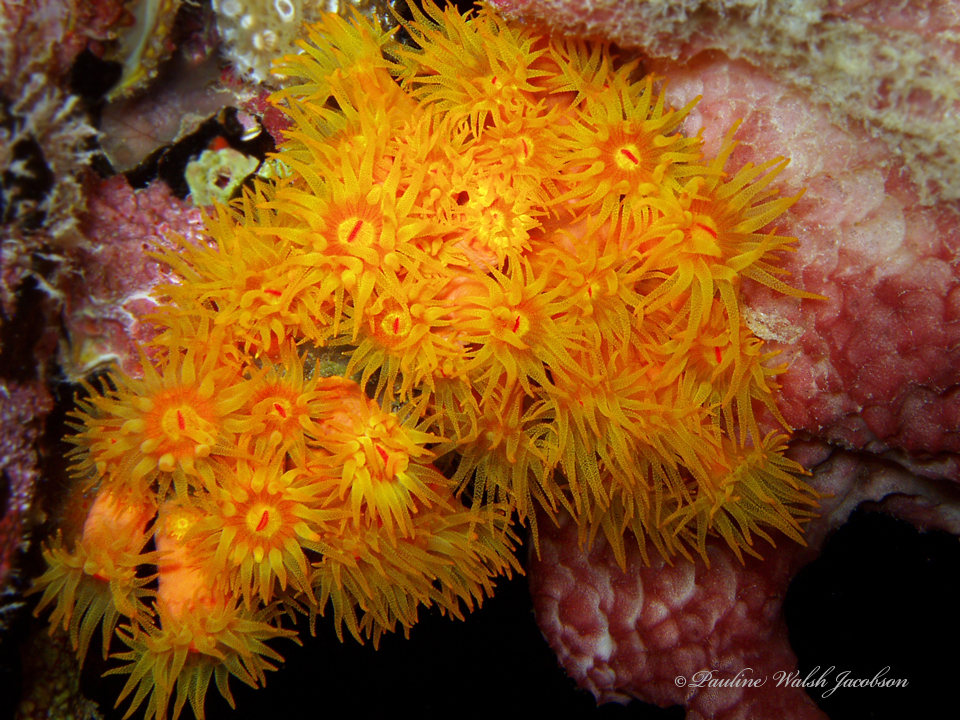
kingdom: Animalia
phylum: Cnidaria
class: Anthozoa
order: Scleractinia
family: Dendrophylliidae
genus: Tubastraea
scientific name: Tubastraea coccinea
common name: Orange cup coral
